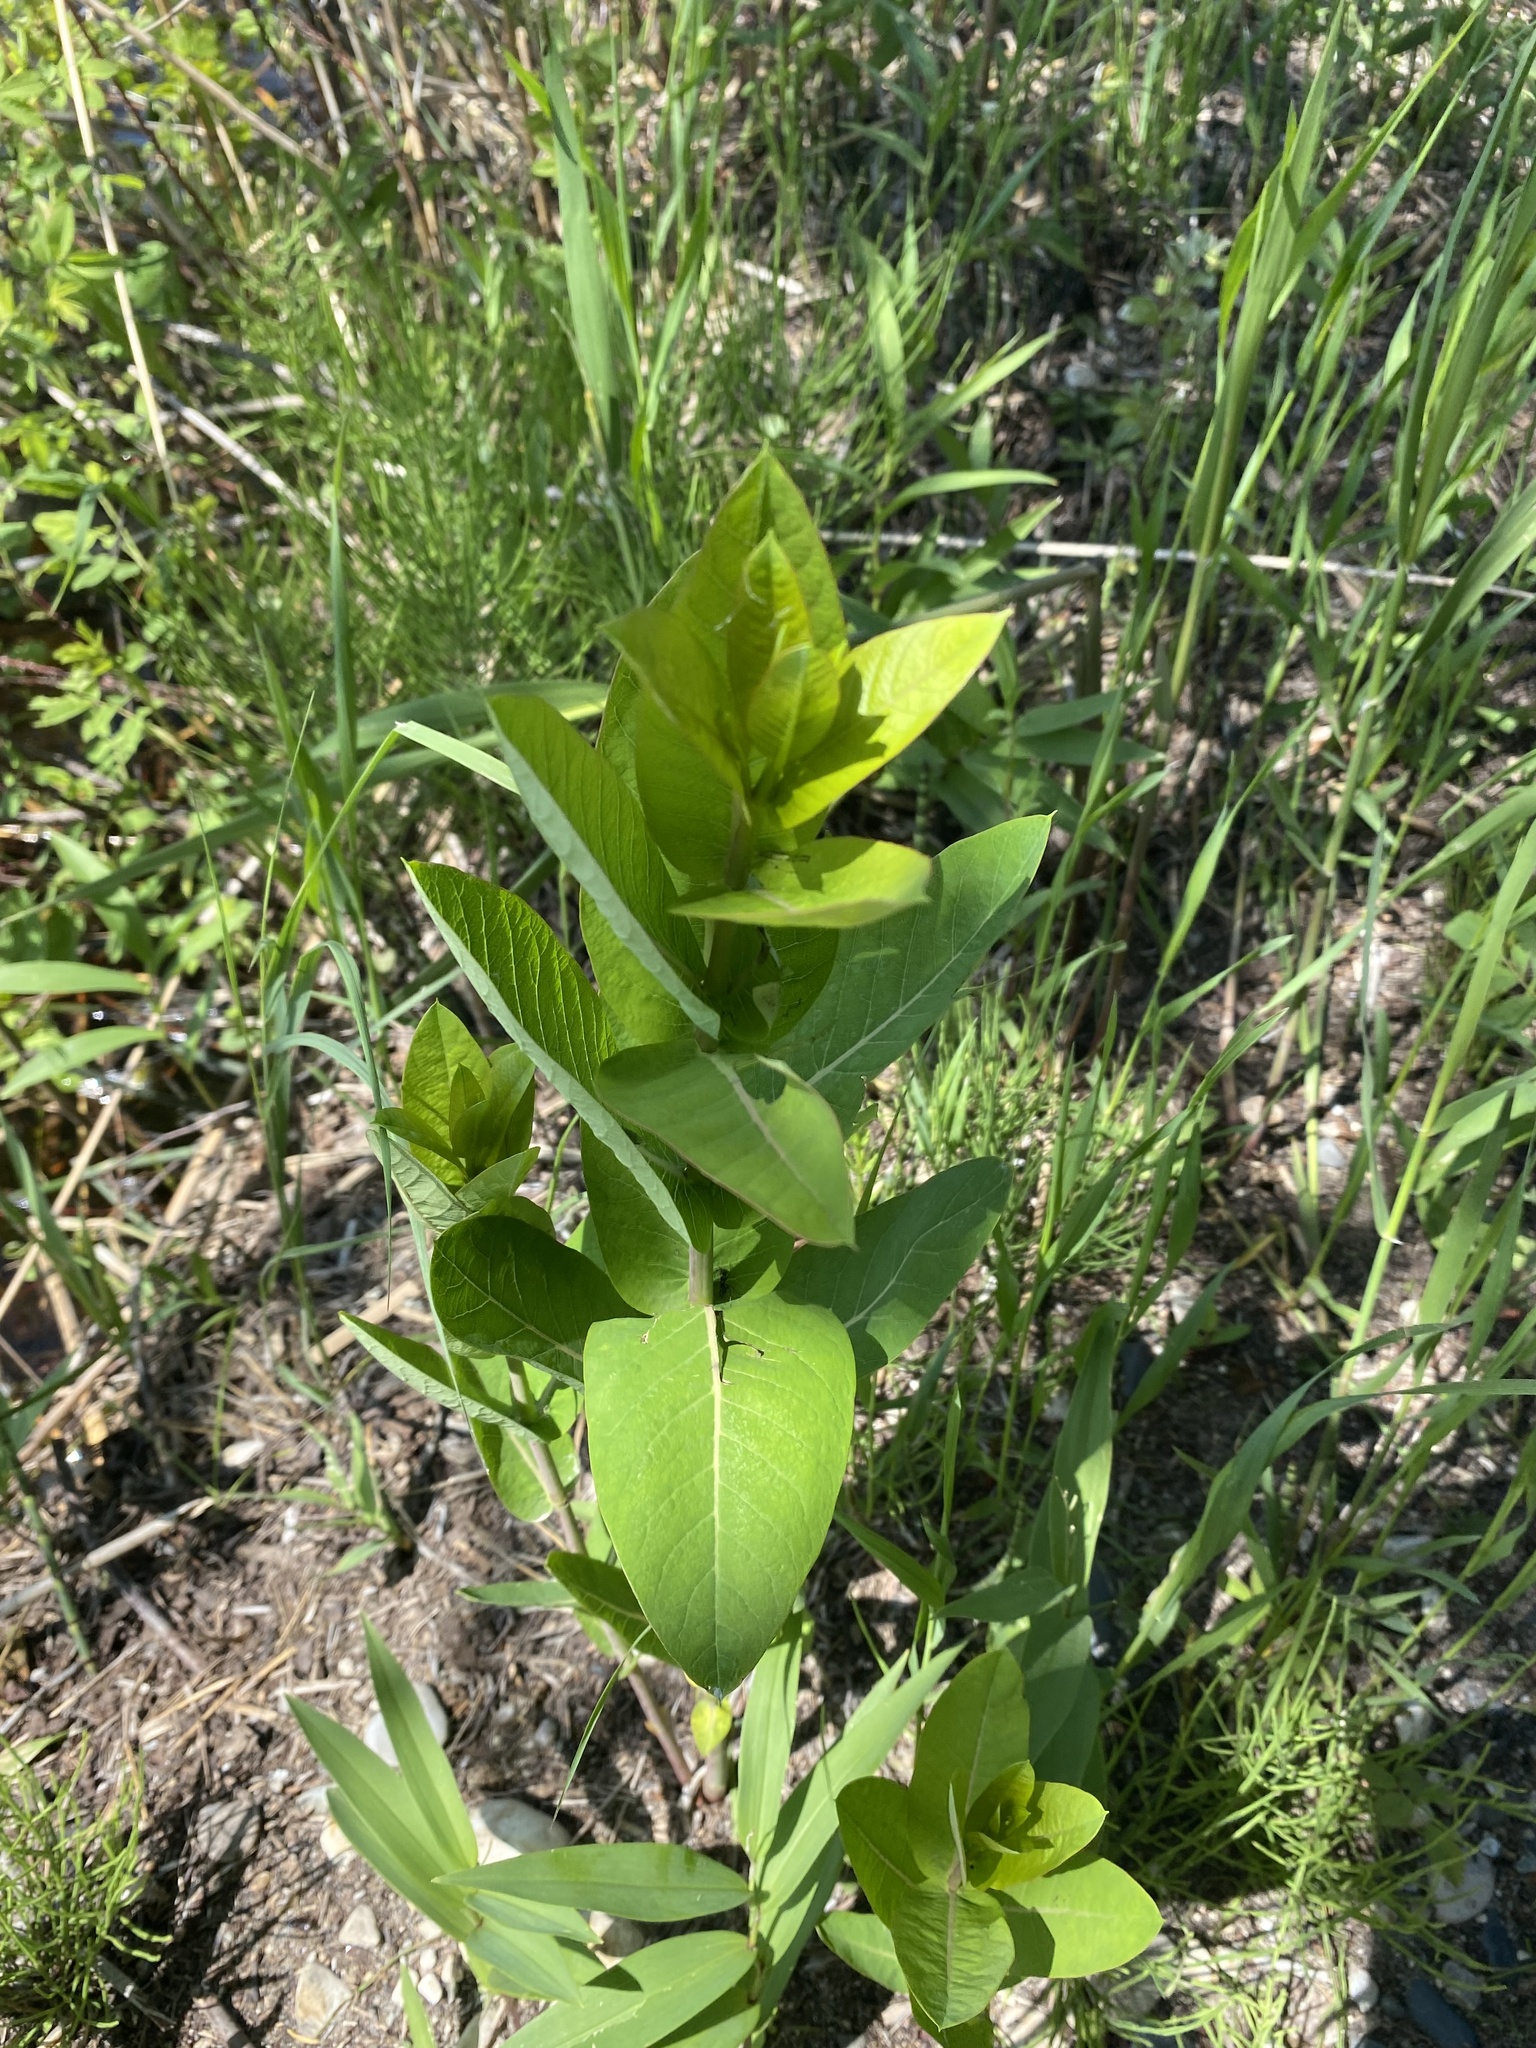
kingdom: Plantae
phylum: Tracheophyta
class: Magnoliopsida
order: Gentianales
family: Apocynaceae
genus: Asclepias
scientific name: Asclepias speciosa
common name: Showy milkweed
